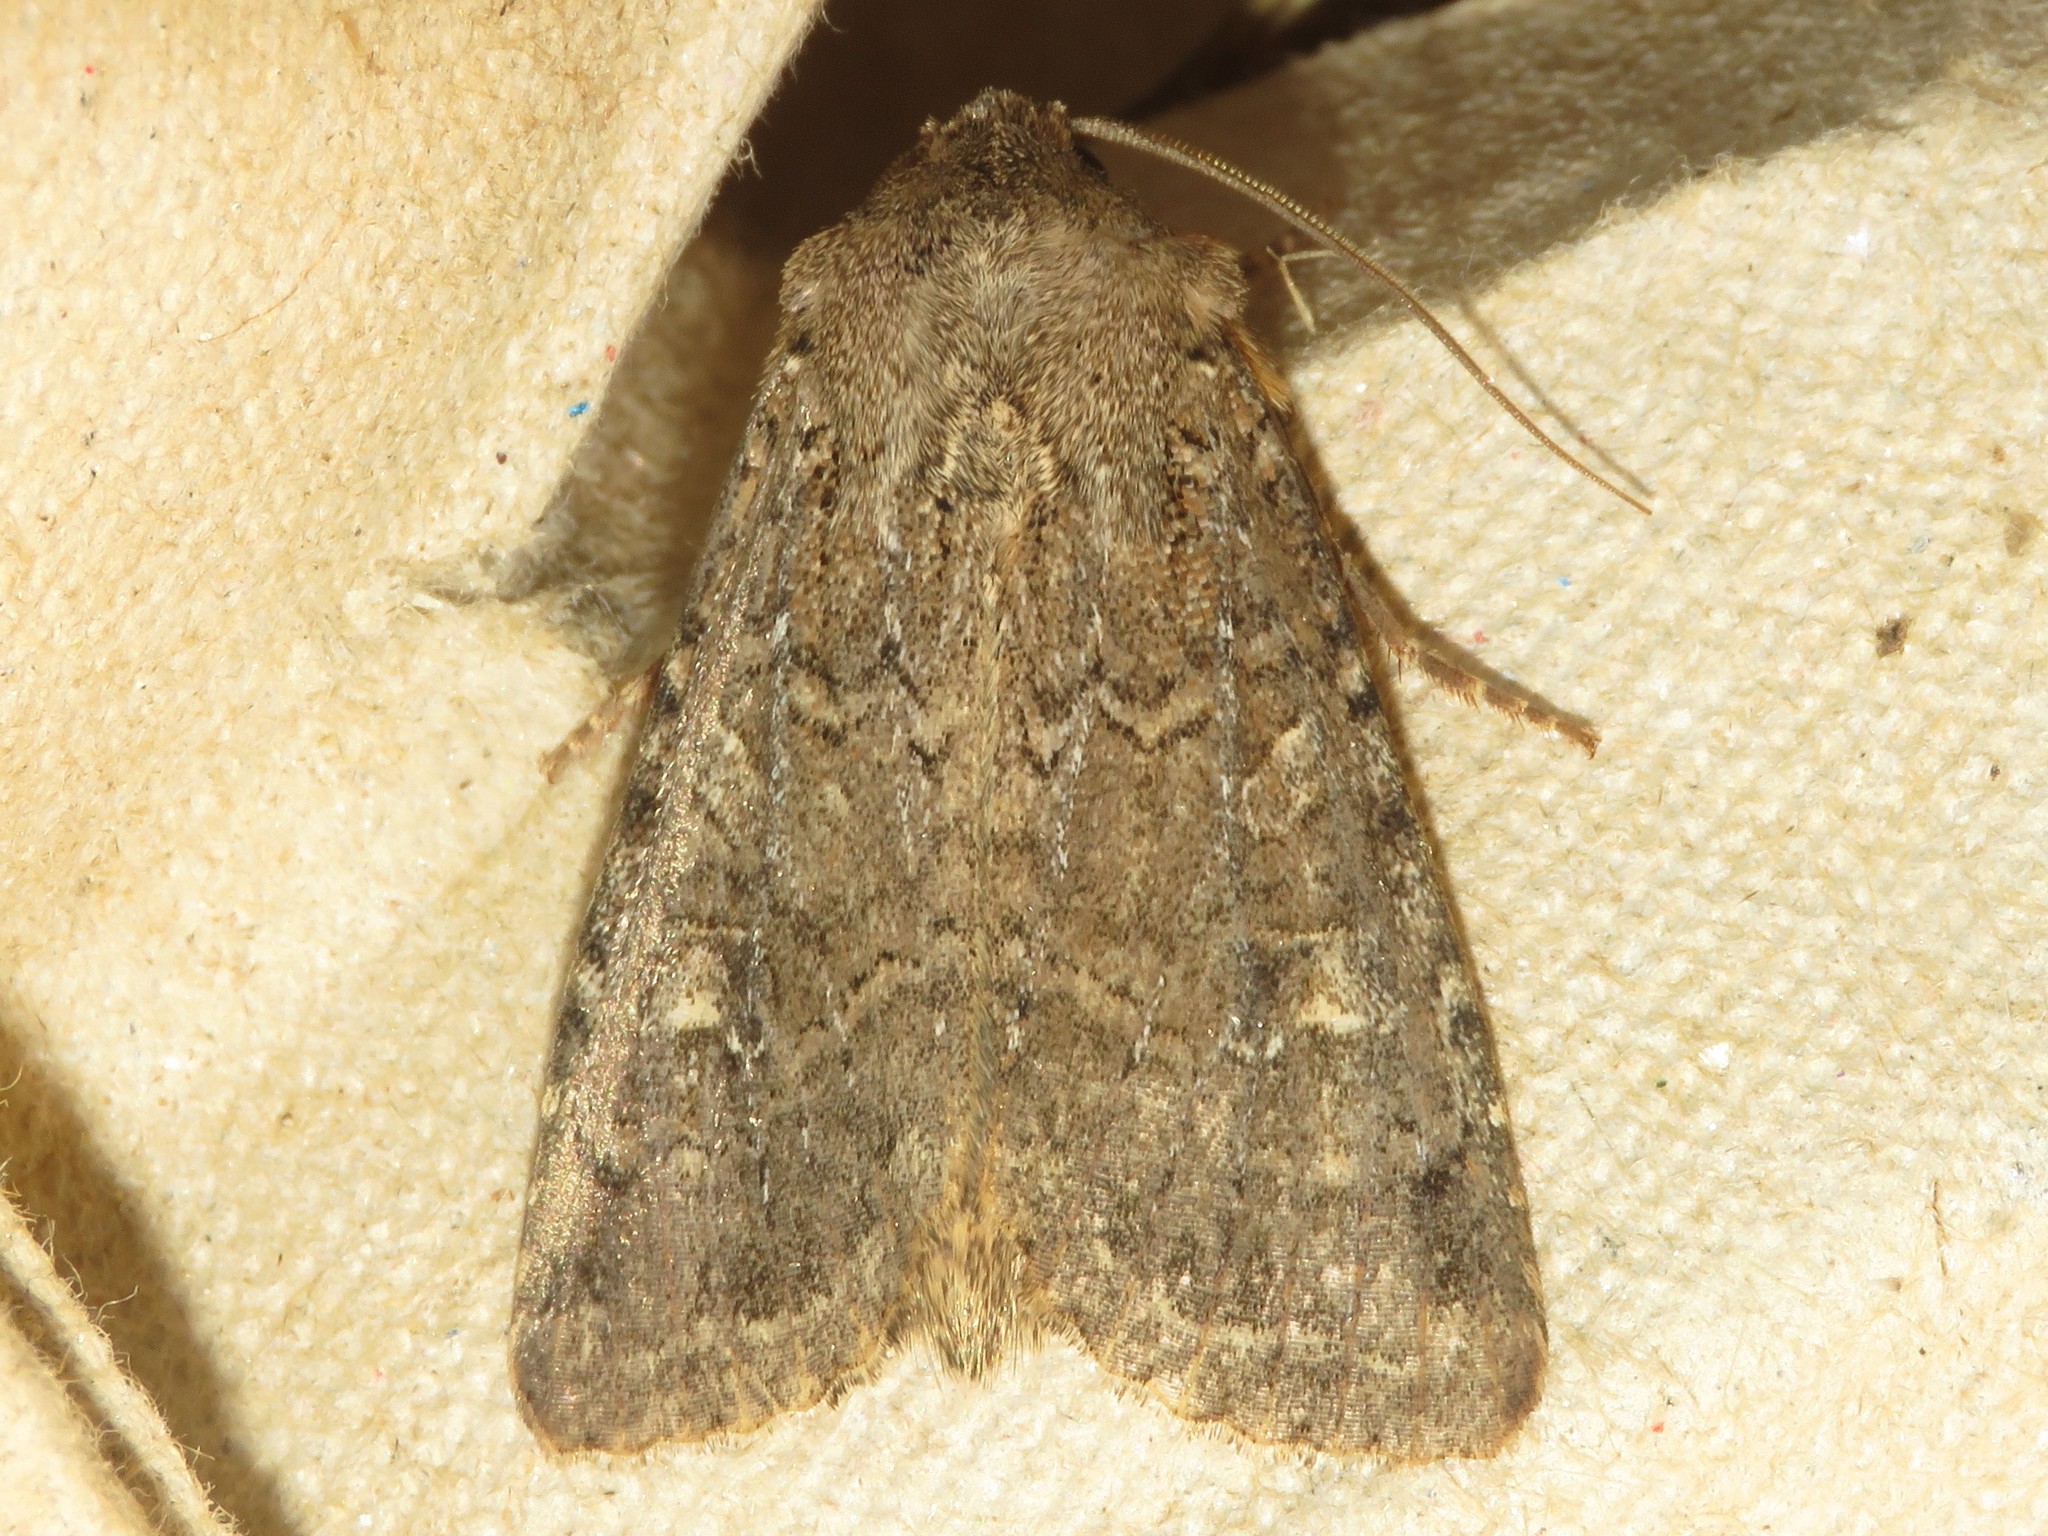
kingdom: Animalia
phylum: Arthropoda
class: Insecta
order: Lepidoptera
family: Noctuidae
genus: Apamea
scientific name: Apamea devastator
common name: Glassy cutworm
